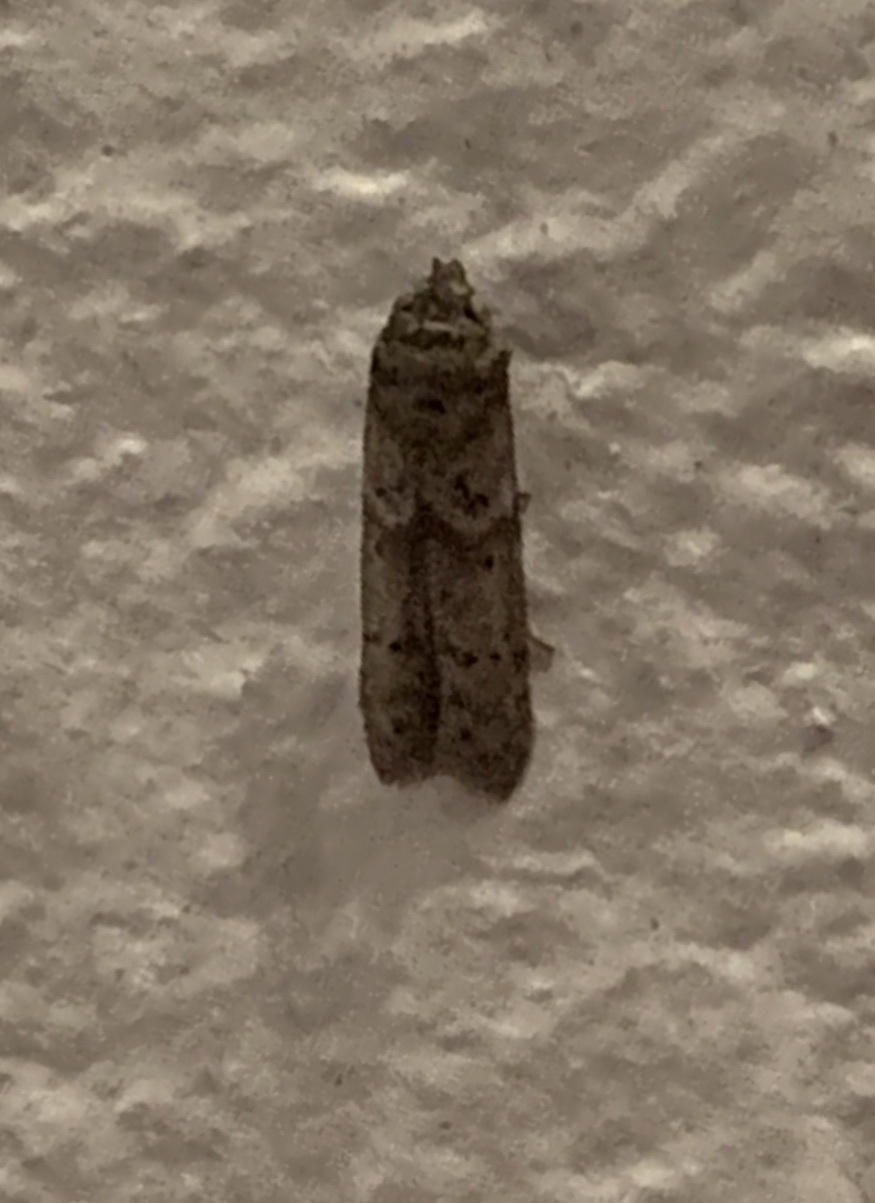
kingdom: Animalia
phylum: Arthropoda
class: Insecta
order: Lepidoptera
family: Blastobasidae
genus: Blastobasis
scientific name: Blastobasis glandulella
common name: Acorn moth
